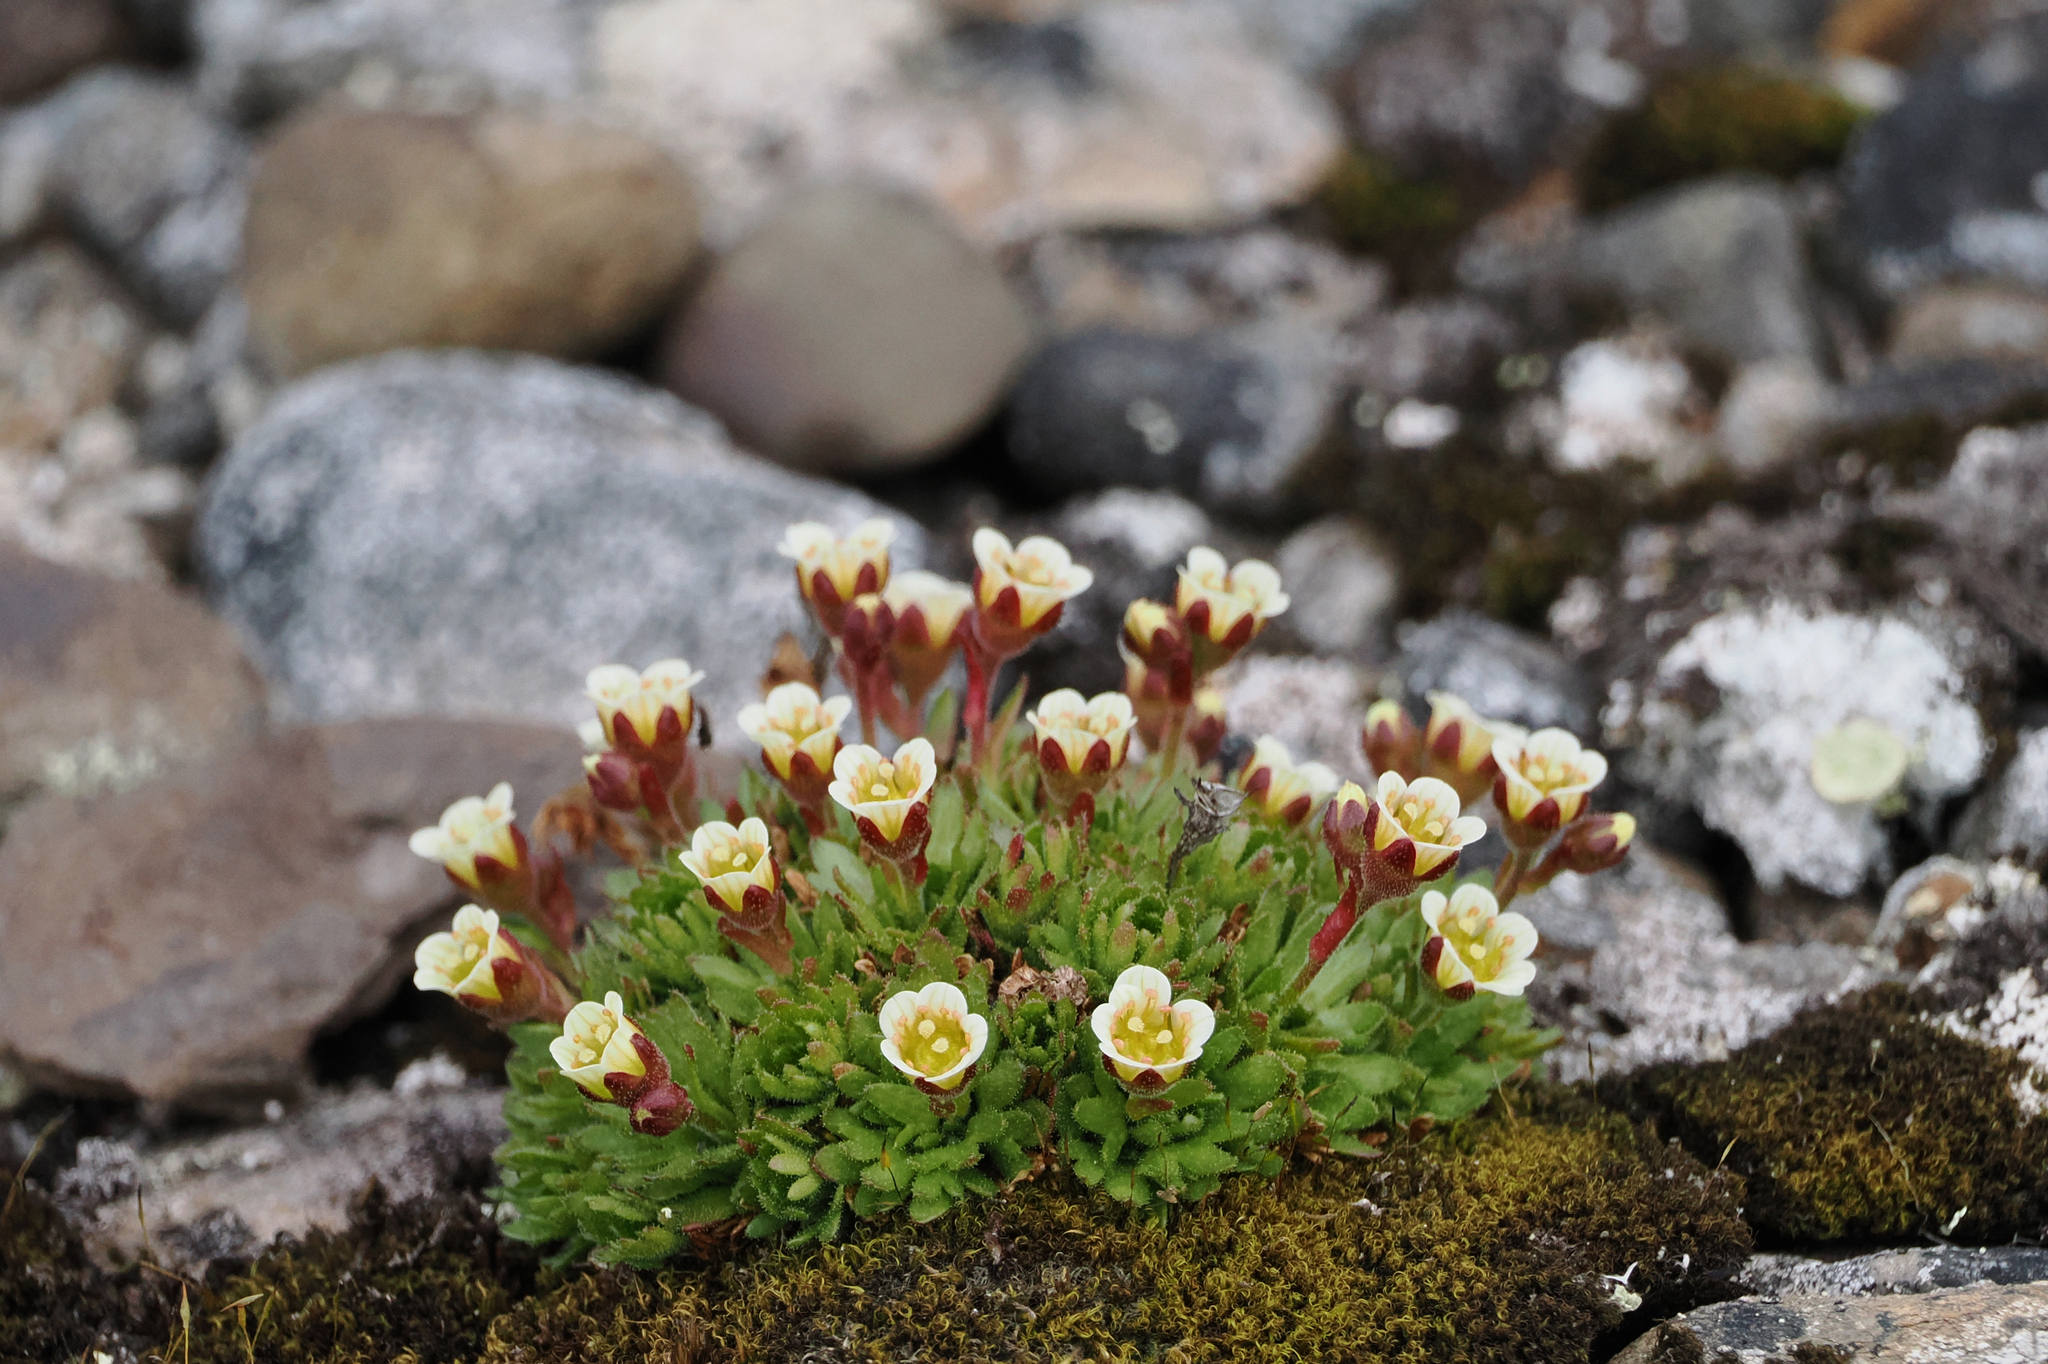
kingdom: Plantae
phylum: Tracheophyta
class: Magnoliopsida
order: Saxifragales
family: Saxifragaceae
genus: Saxifraga
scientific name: Saxifraga cespitosa
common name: Tufted saxifrage
